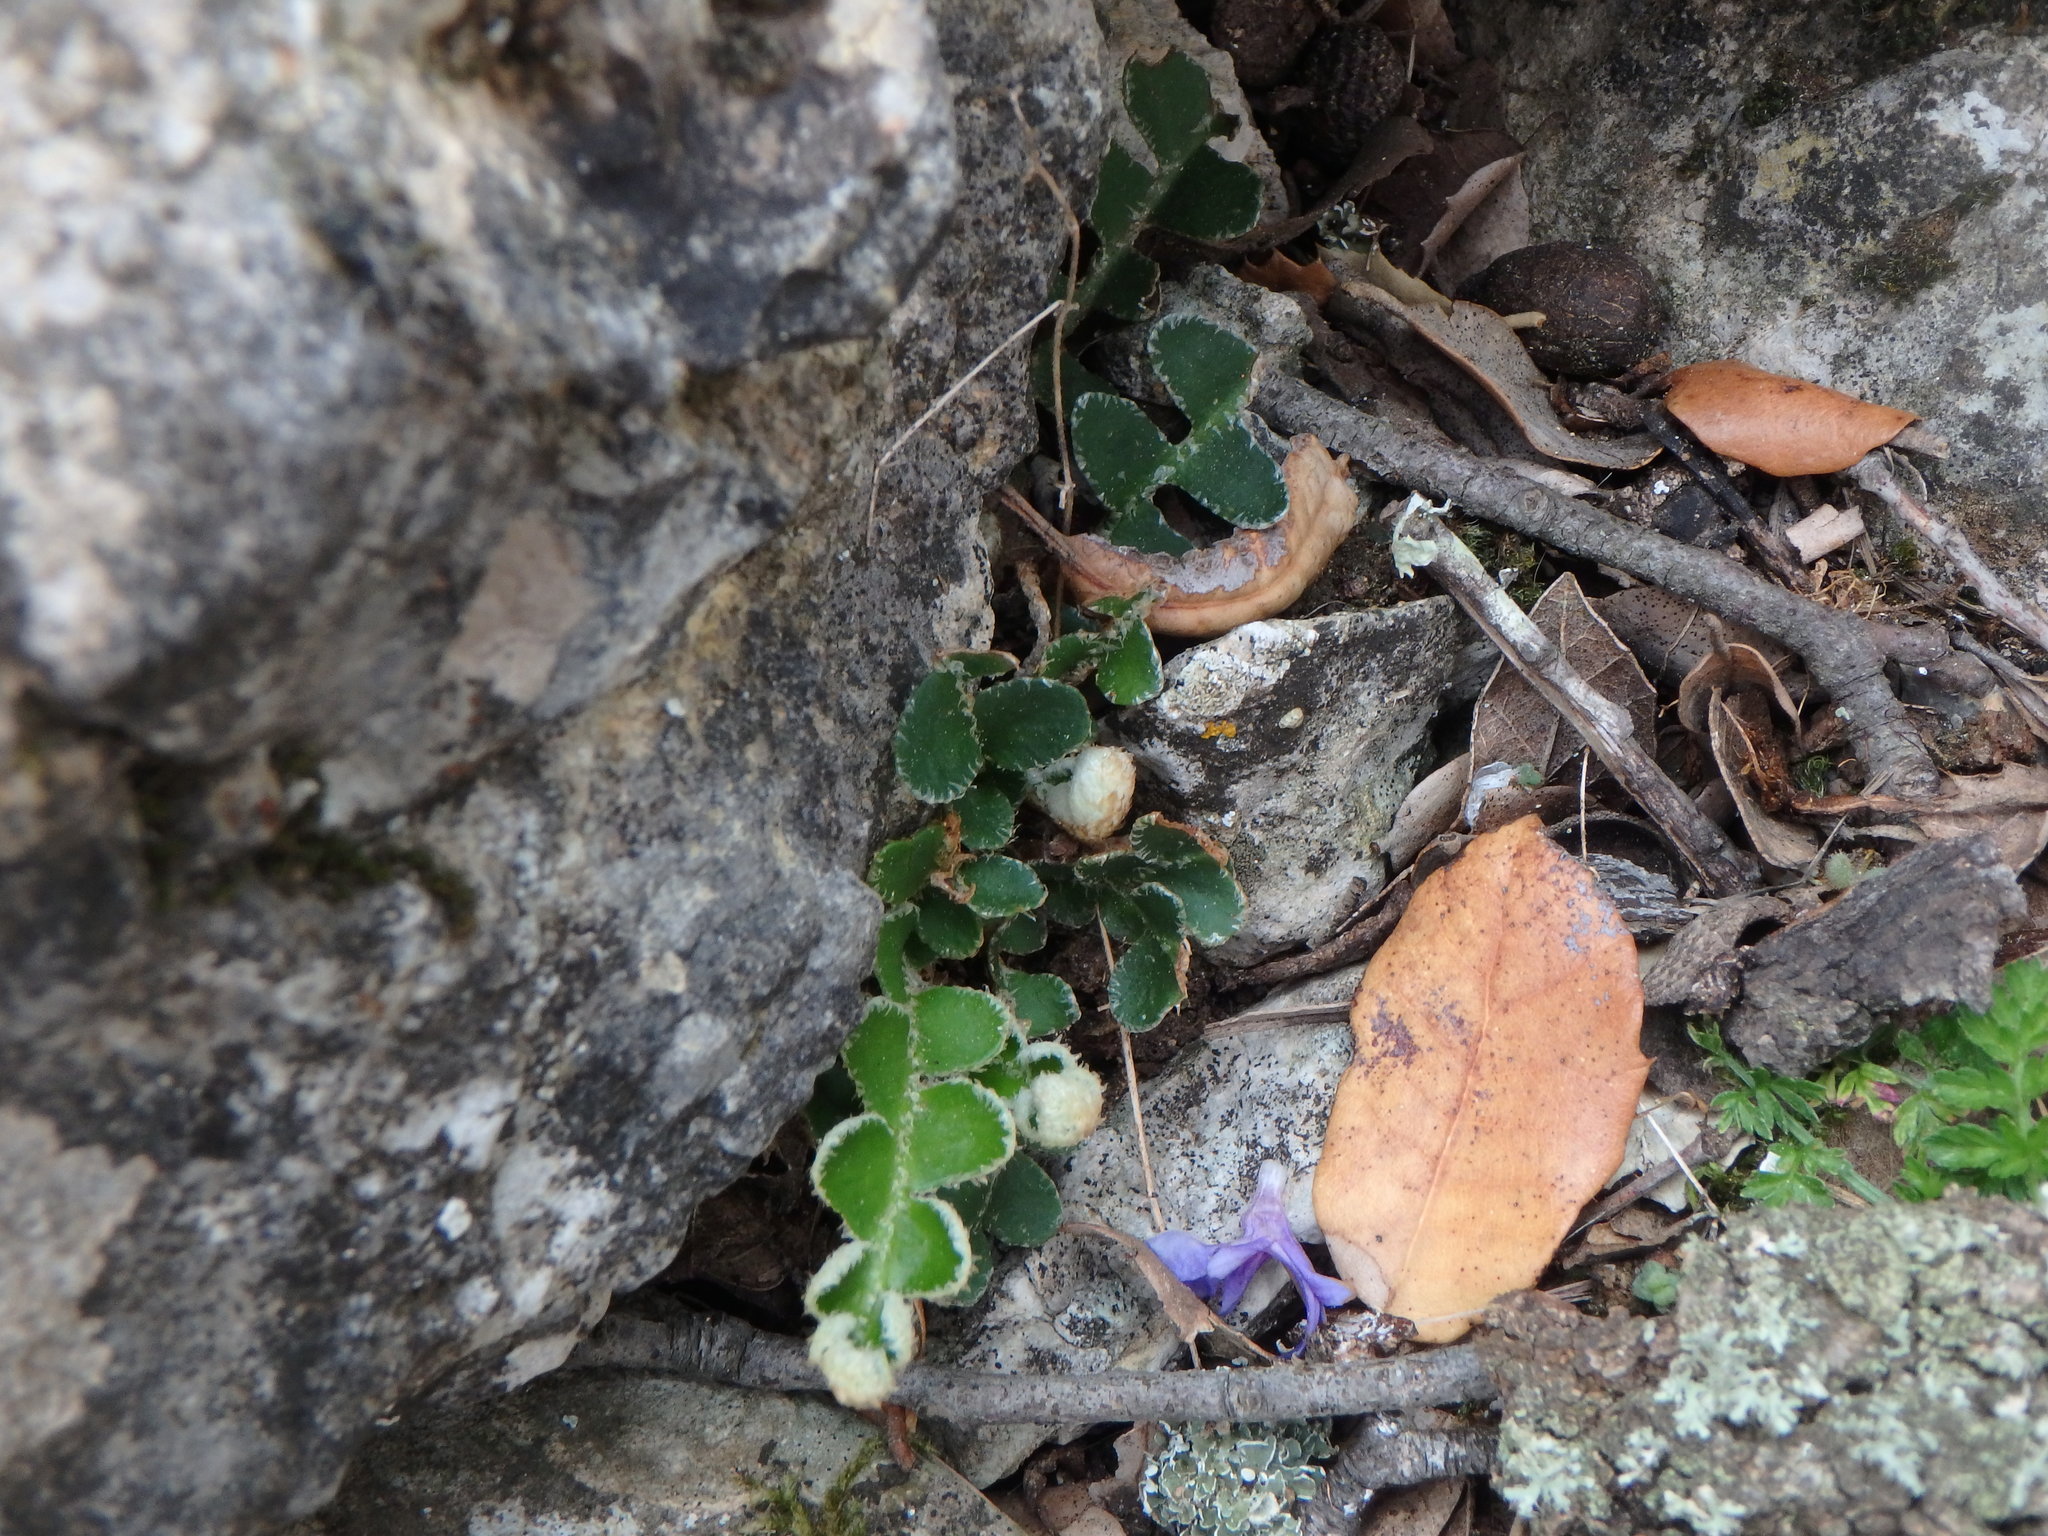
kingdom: Plantae
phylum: Tracheophyta
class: Polypodiopsida
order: Polypodiales
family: Aspleniaceae
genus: Asplenium
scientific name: Asplenium ceterach
